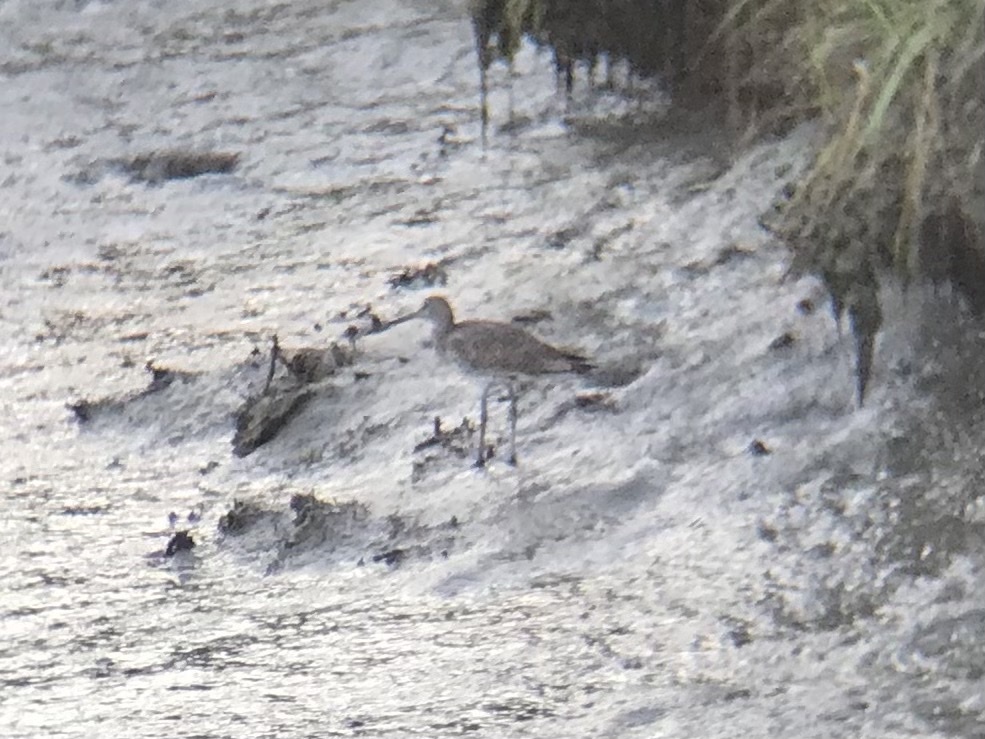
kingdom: Animalia
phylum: Chordata
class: Aves
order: Charadriiformes
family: Scolopacidae
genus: Tringa
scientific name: Tringa semipalmata
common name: Willet
